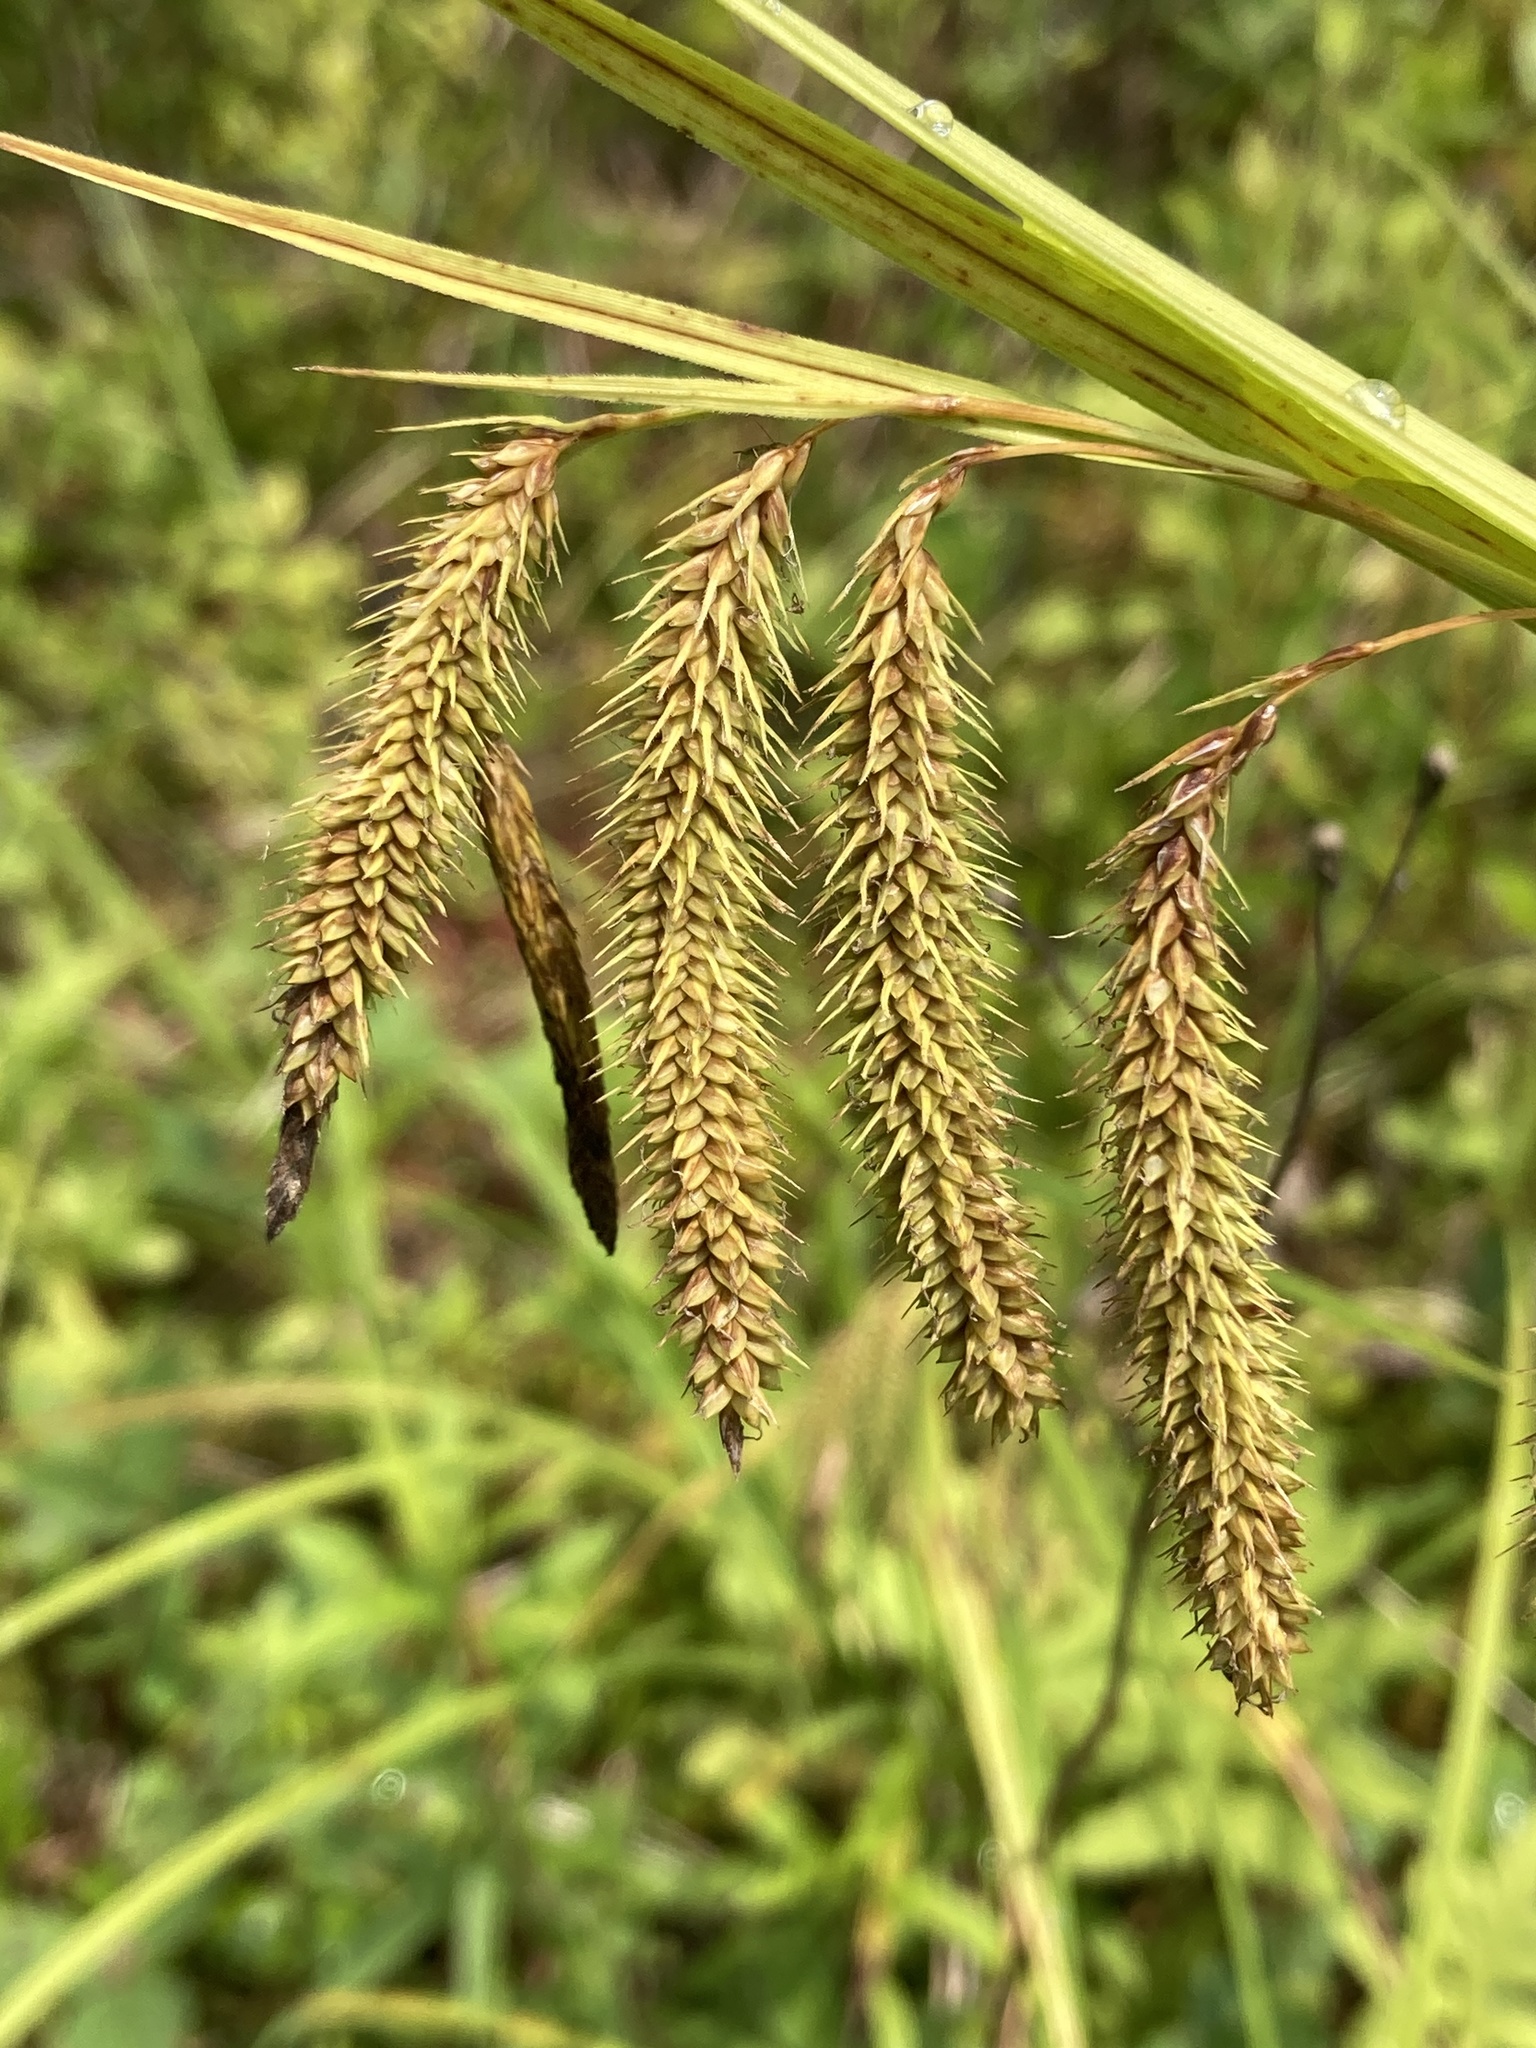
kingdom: Plantae
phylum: Tracheophyta
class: Liliopsida
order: Poales
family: Cyperaceae
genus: Carex
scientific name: Carex gynandra
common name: Nodding sedge
